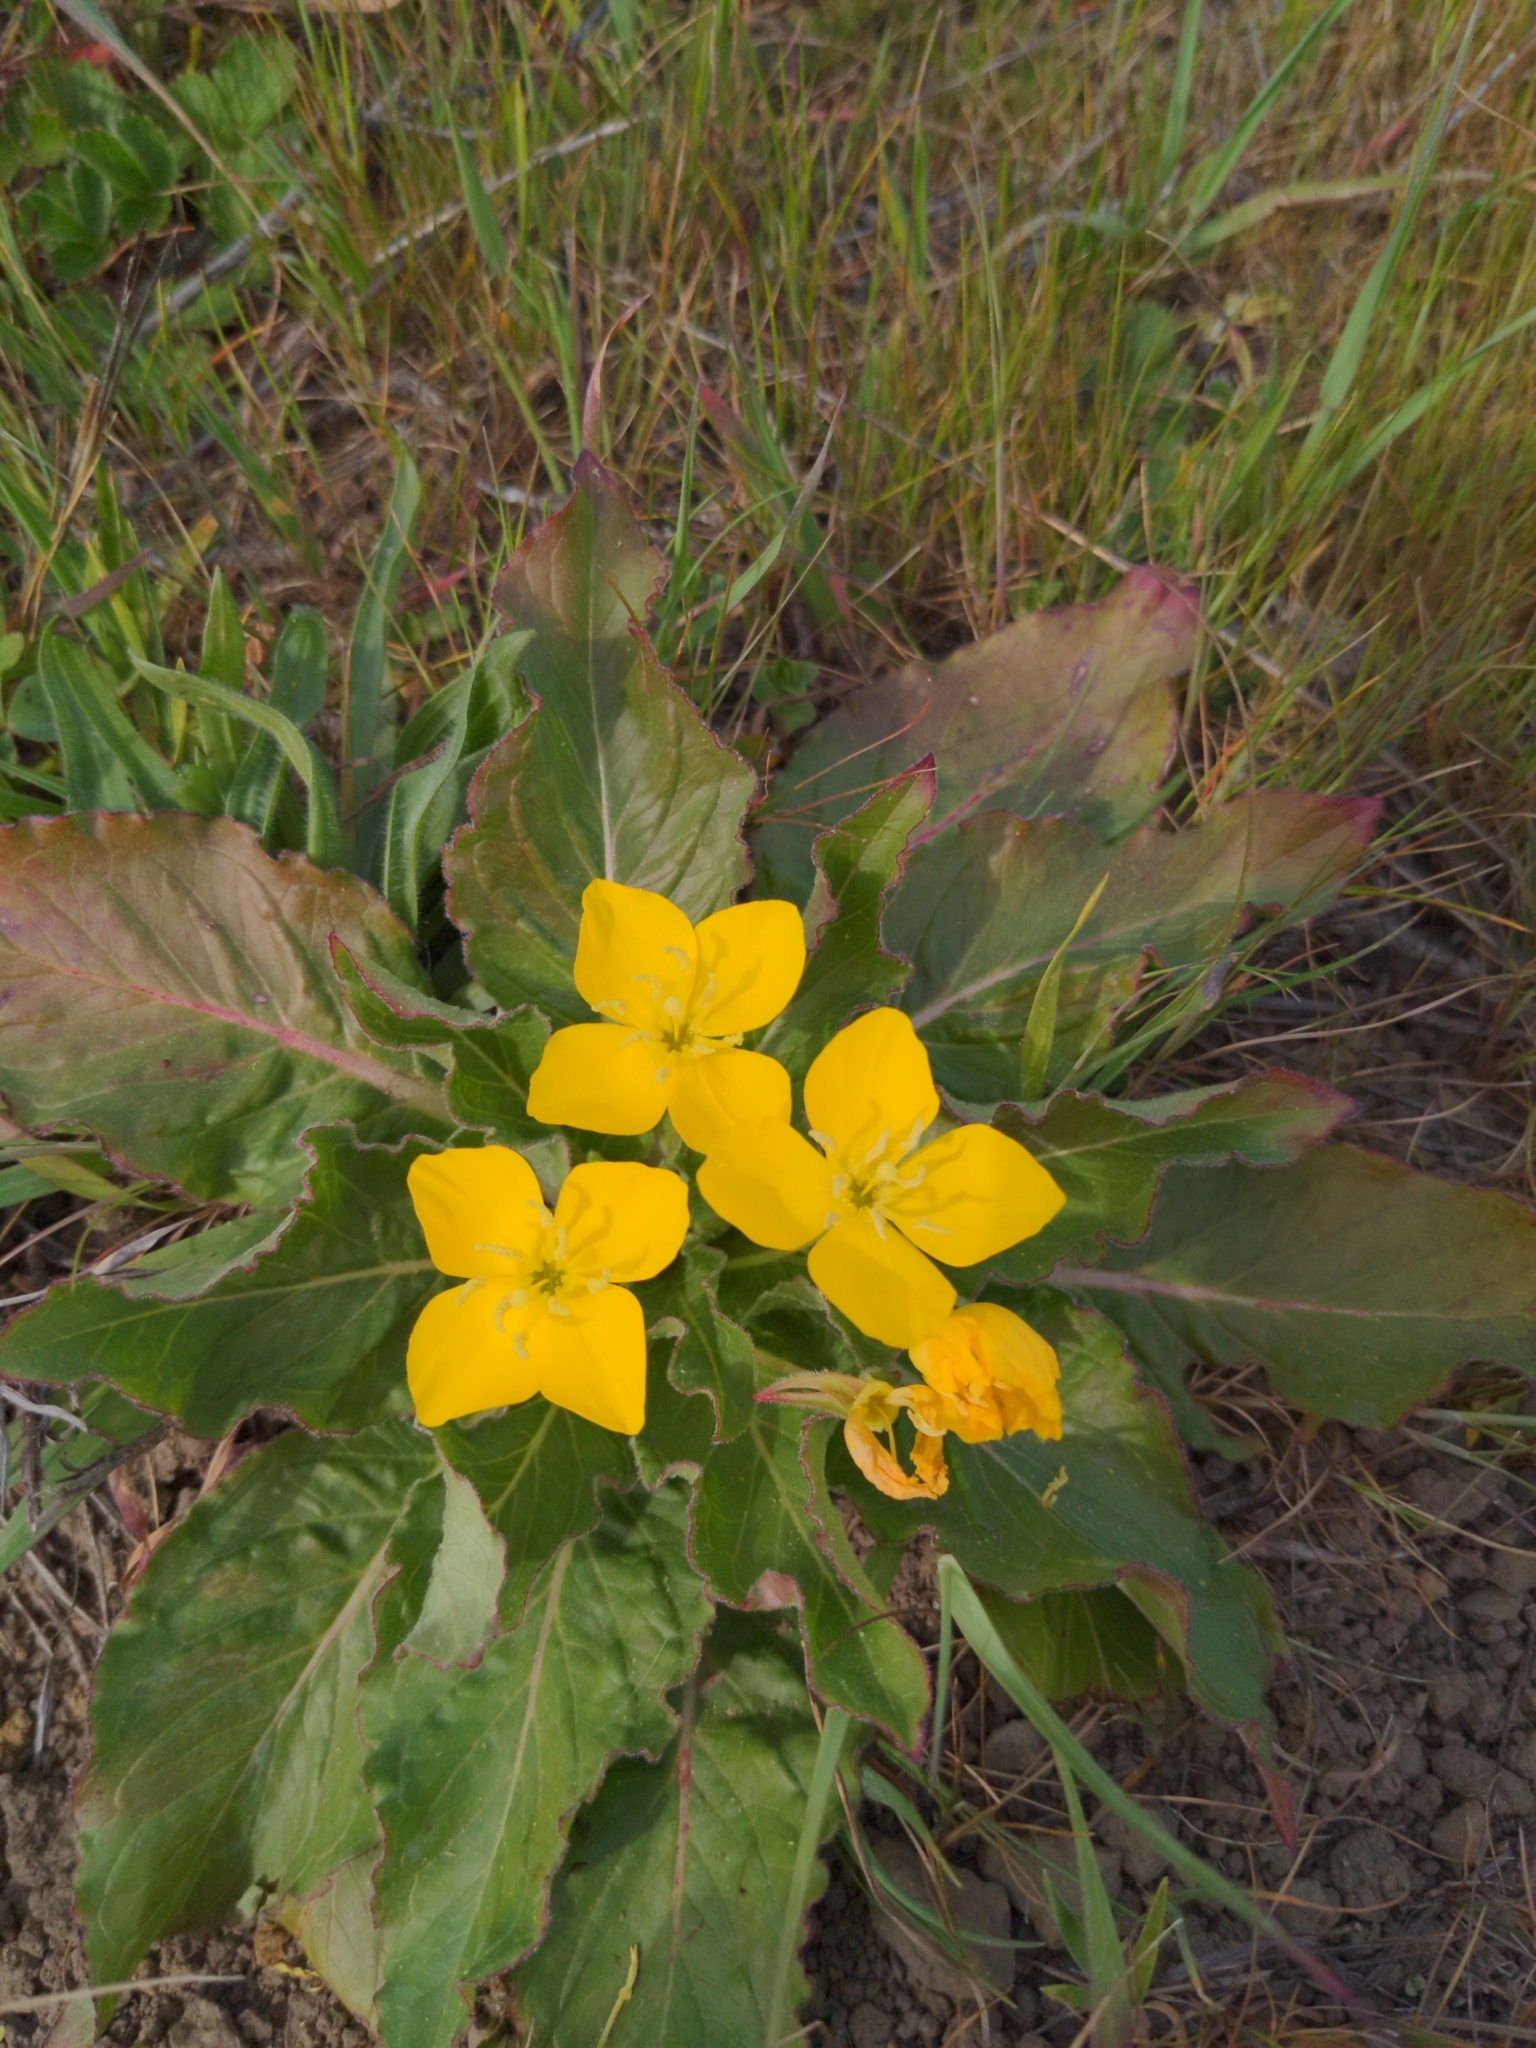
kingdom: Plantae
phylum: Tracheophyta
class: Magnoliopsida
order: Myrtales
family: Onagraceae
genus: Taraxia
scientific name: Taraxia ovata
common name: Goldeneggs
